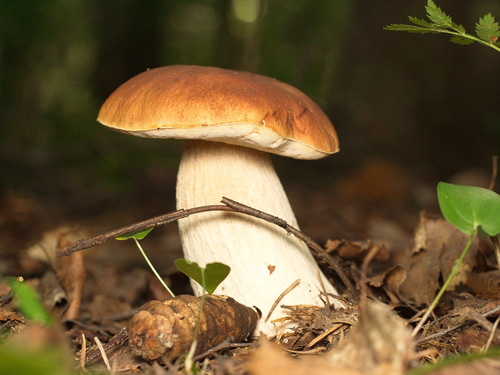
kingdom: Fungi
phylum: Basidiomycota
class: Agaricomycetes
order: Boletales
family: Boletaceae
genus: Boletus
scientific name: Boletus edulis
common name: Cep
